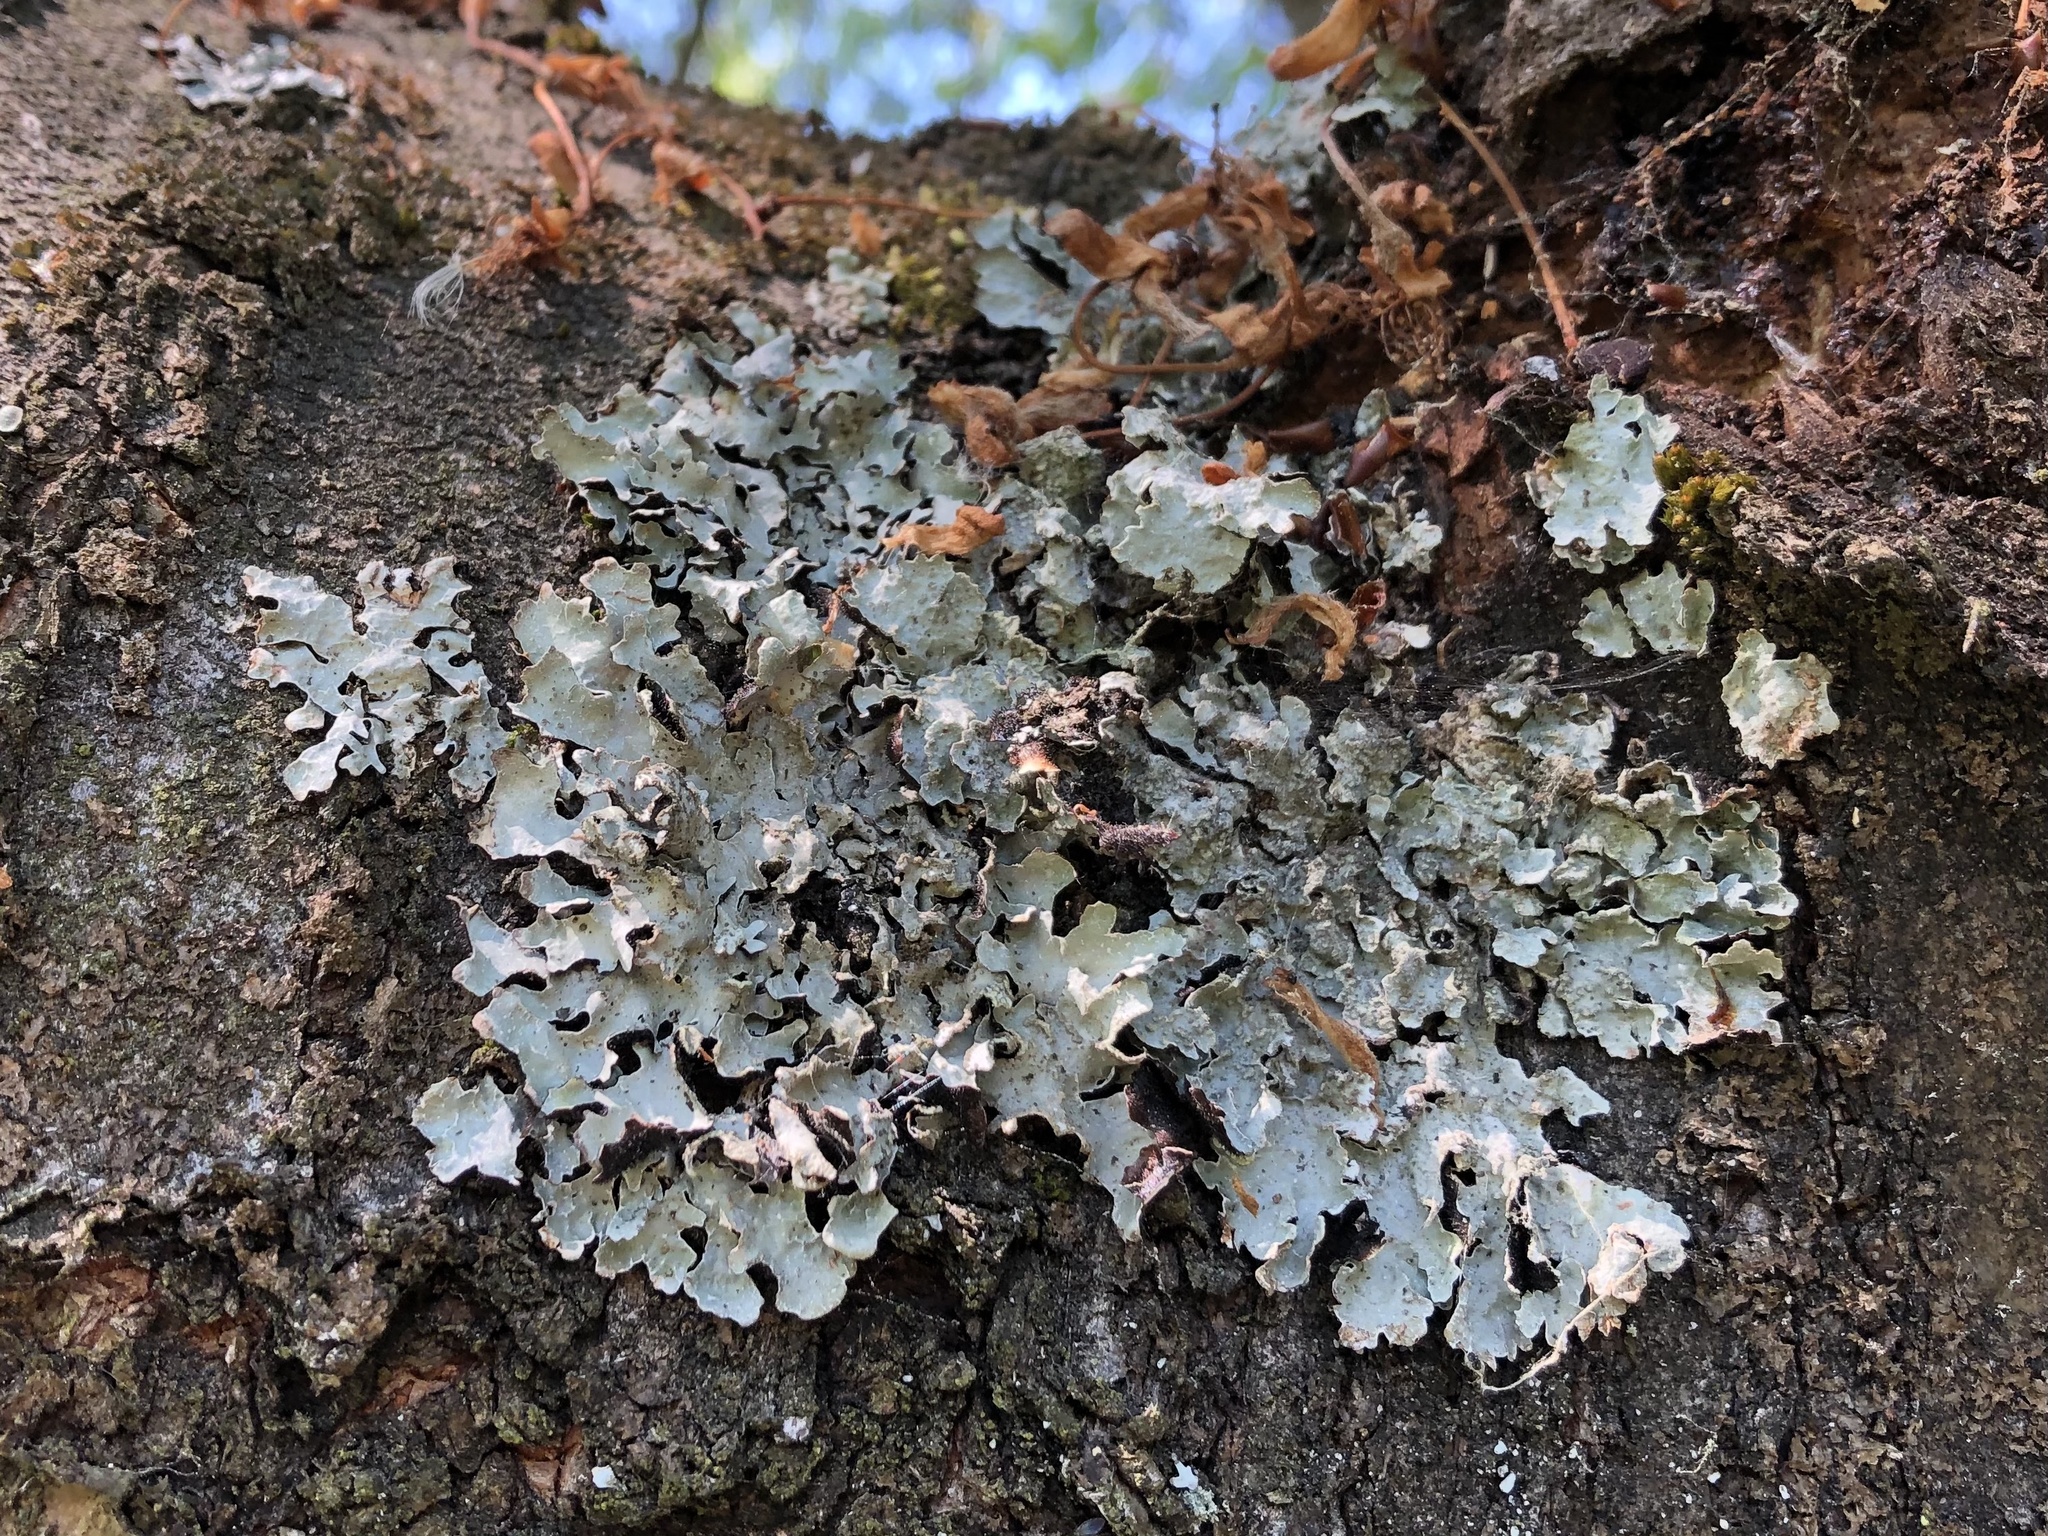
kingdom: Fungi
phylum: Ascomycota
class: Lecanoromycetes
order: Lecanorales
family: Parmeliaceae
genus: Parmelia
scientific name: Parmelia sulcata
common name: Netted shield lichen
